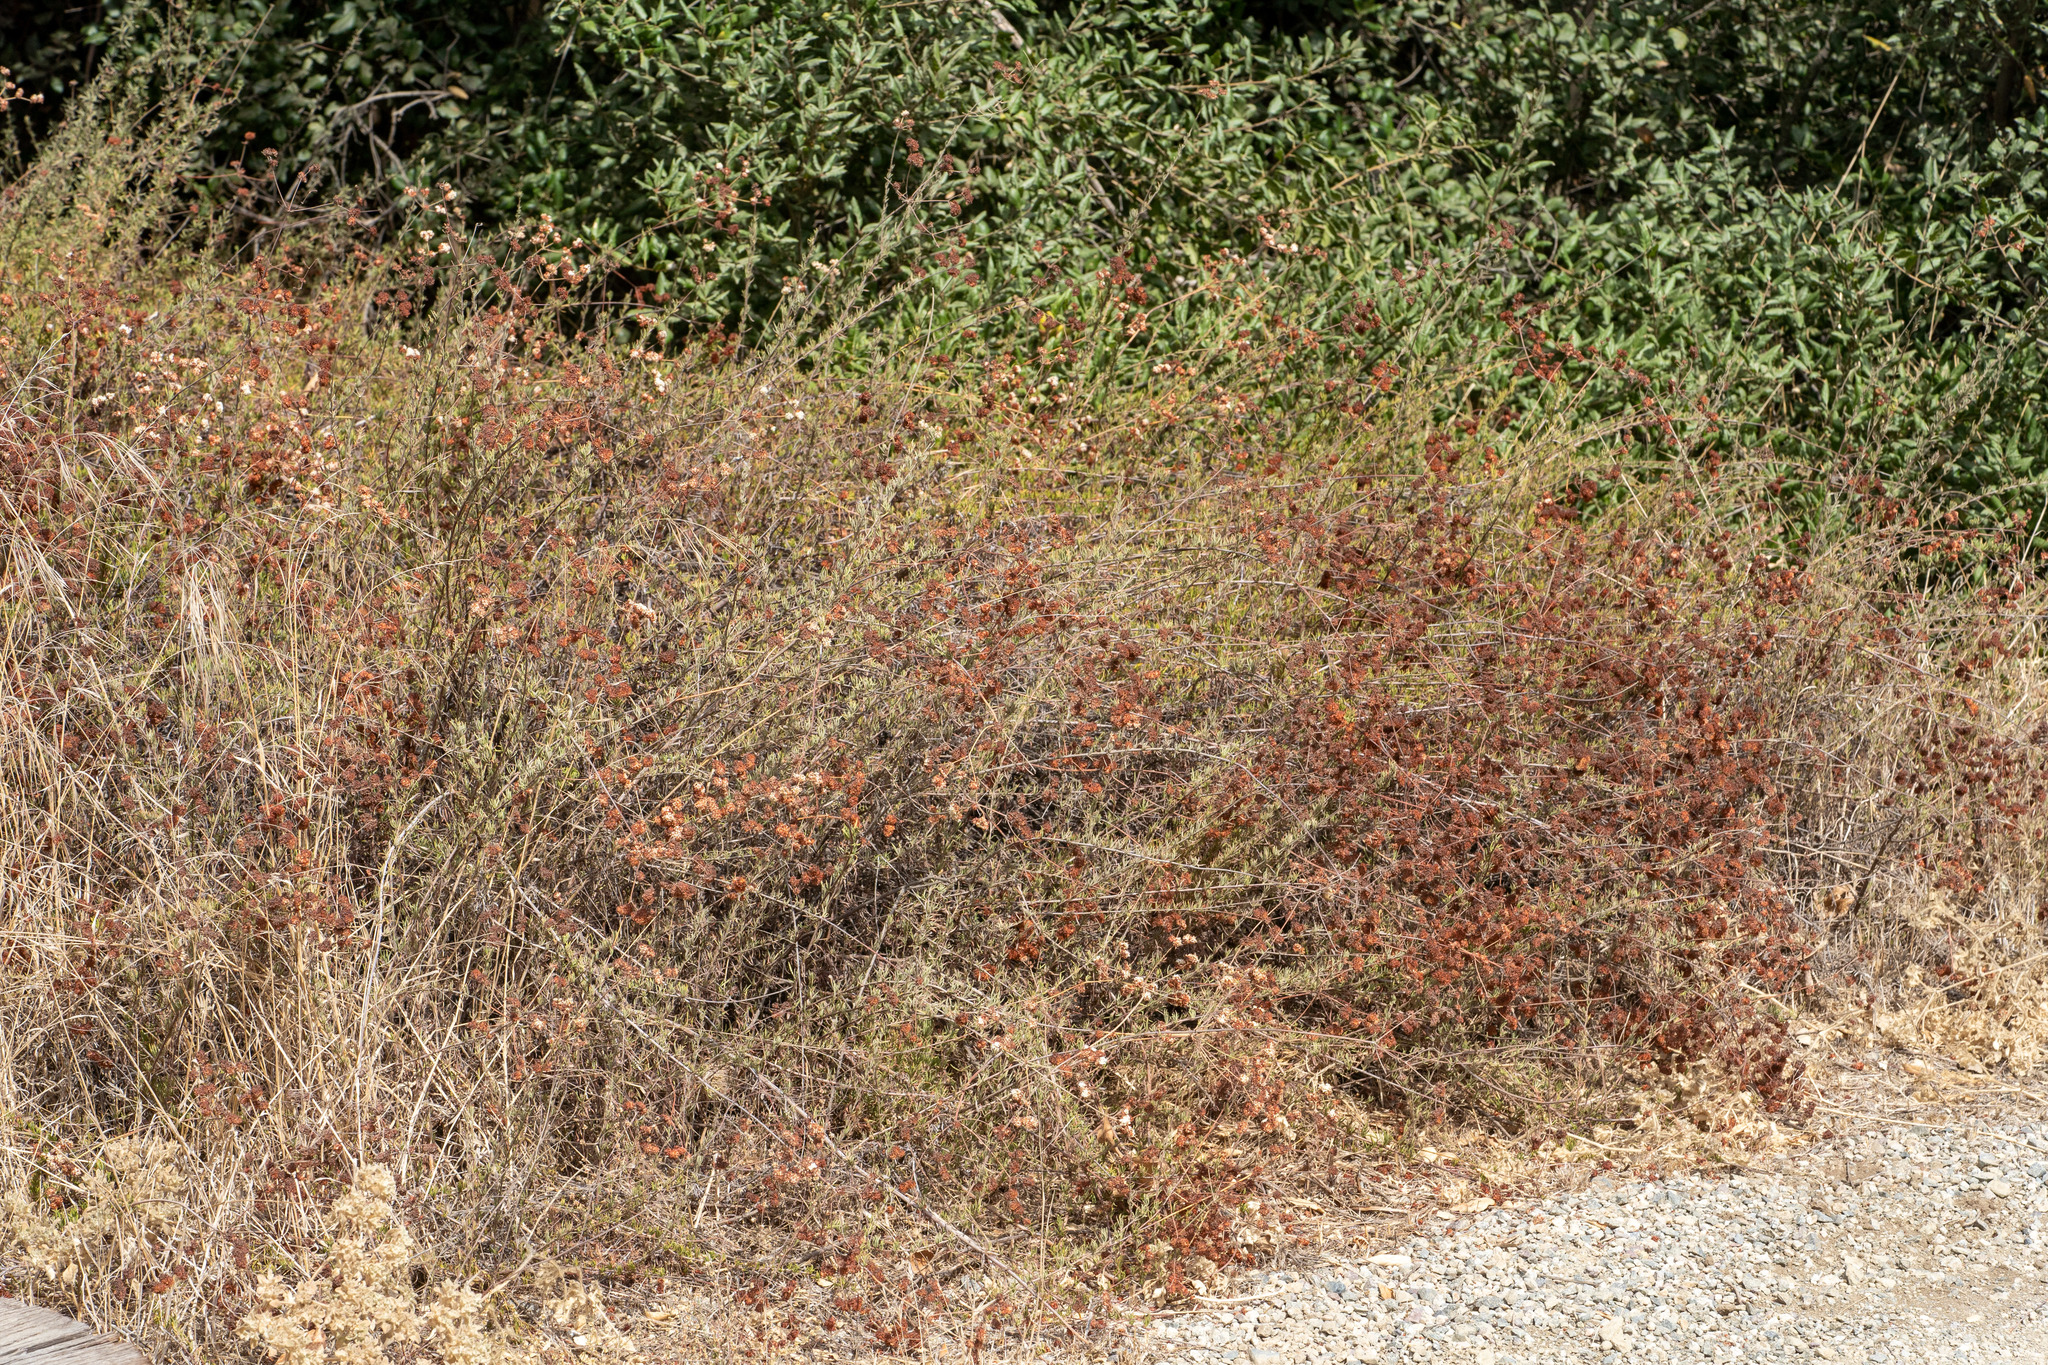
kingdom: Plantae
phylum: Tracheophyta
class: Magnoliopsida
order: Caryophyllales
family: Polygonaceae
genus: Eriogonum
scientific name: Eriogonum fasciculatum
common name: California wild buckwheat
